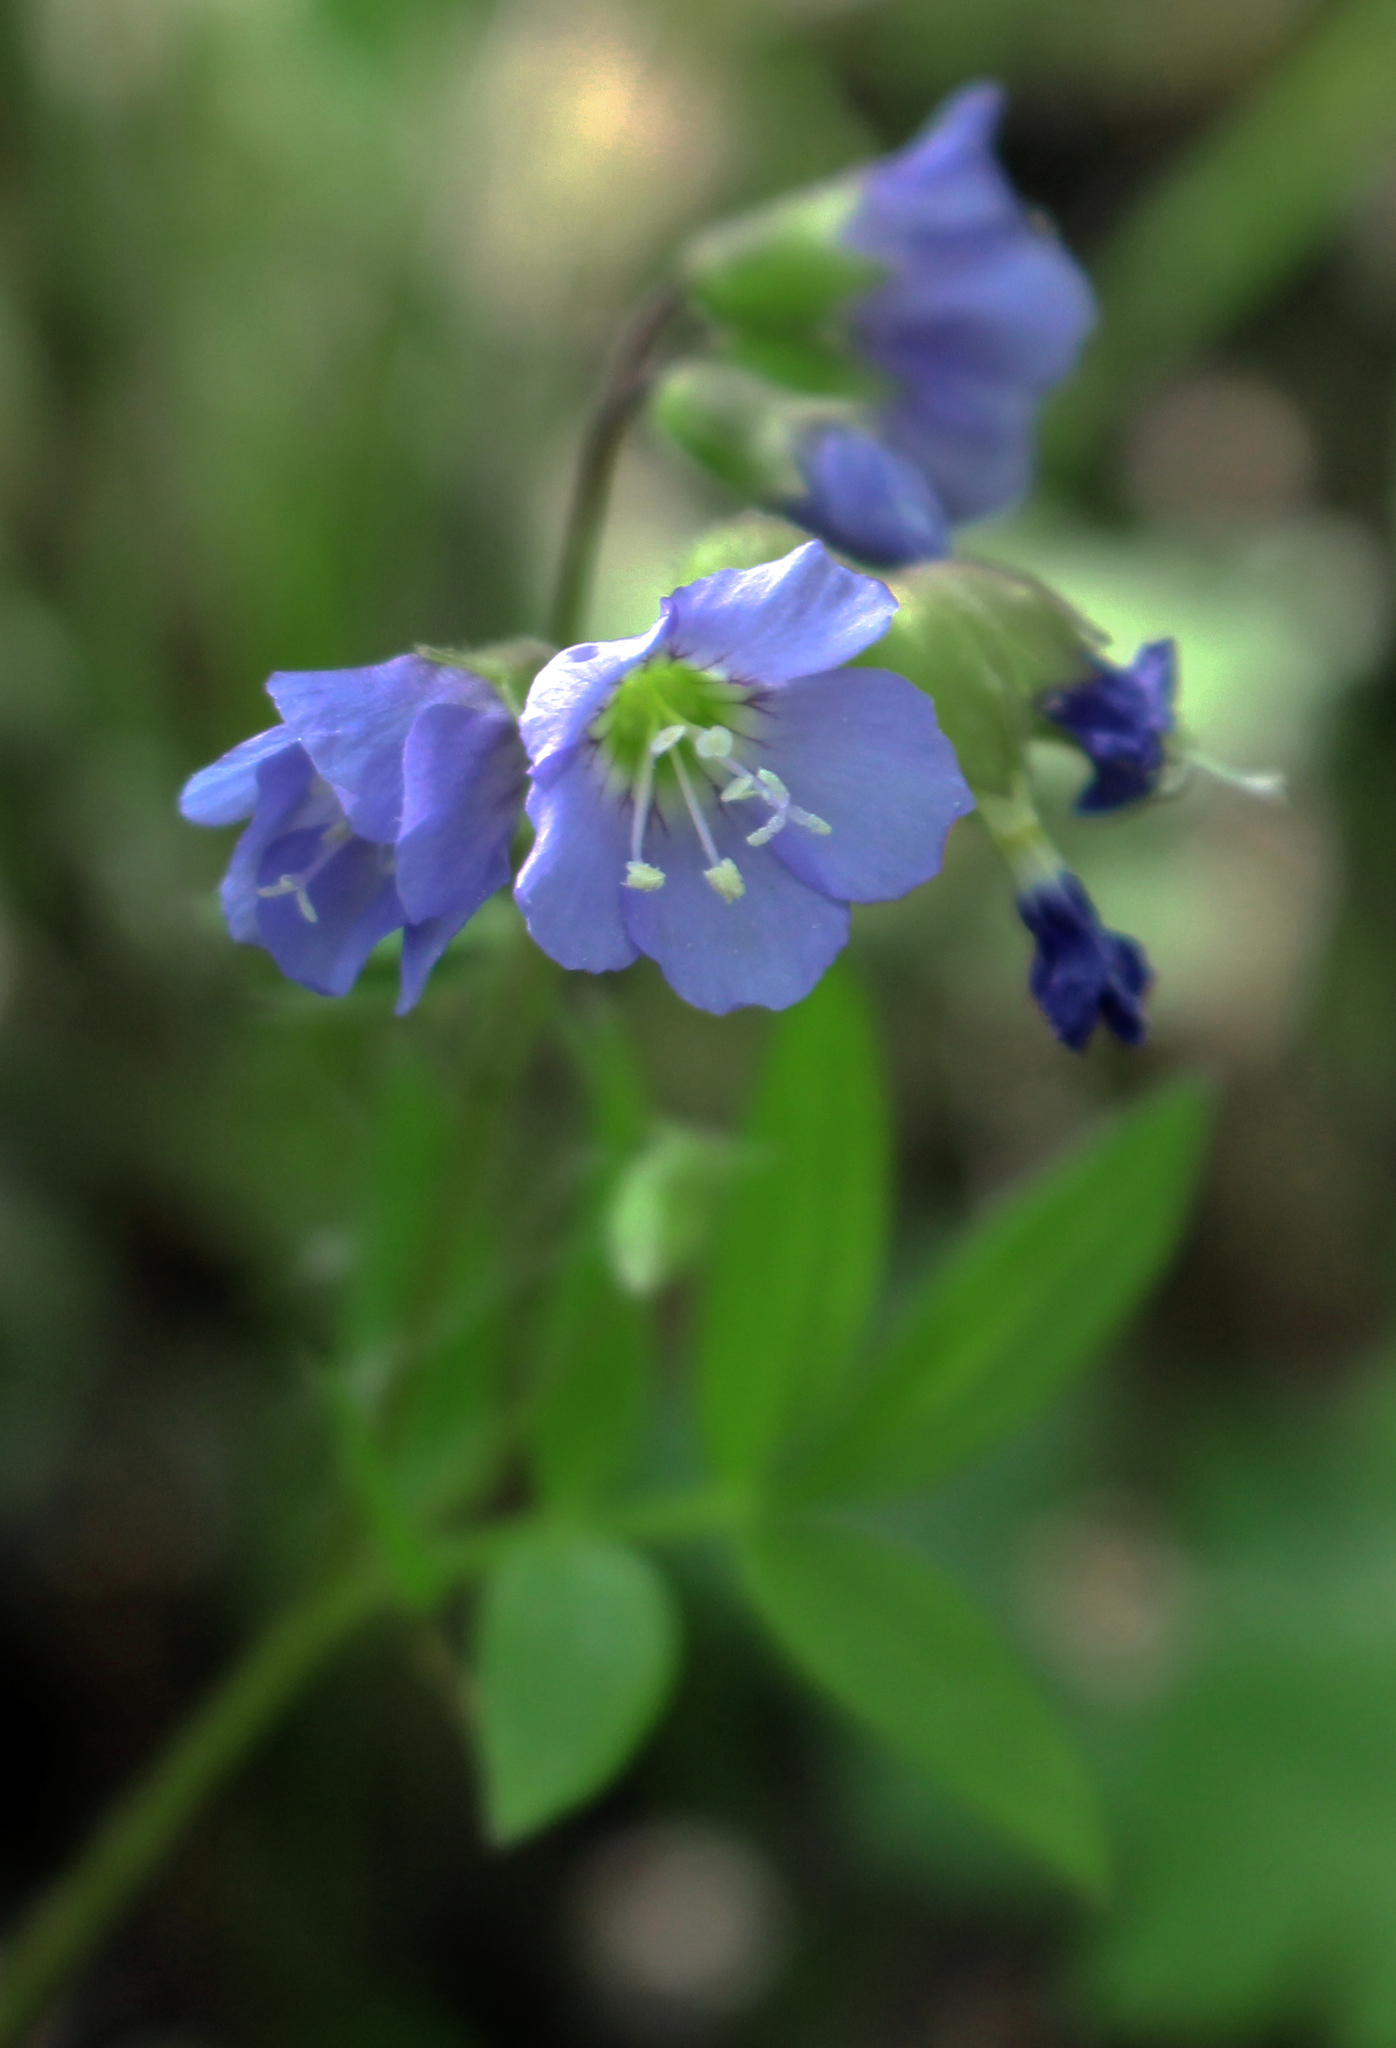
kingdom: Plantae
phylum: Tracheophyta
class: Magnoliopsida
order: Ericales
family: Polemoniaceae
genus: Polemonium
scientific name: Polemonium reptans
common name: Creeping jacob's-ladder
